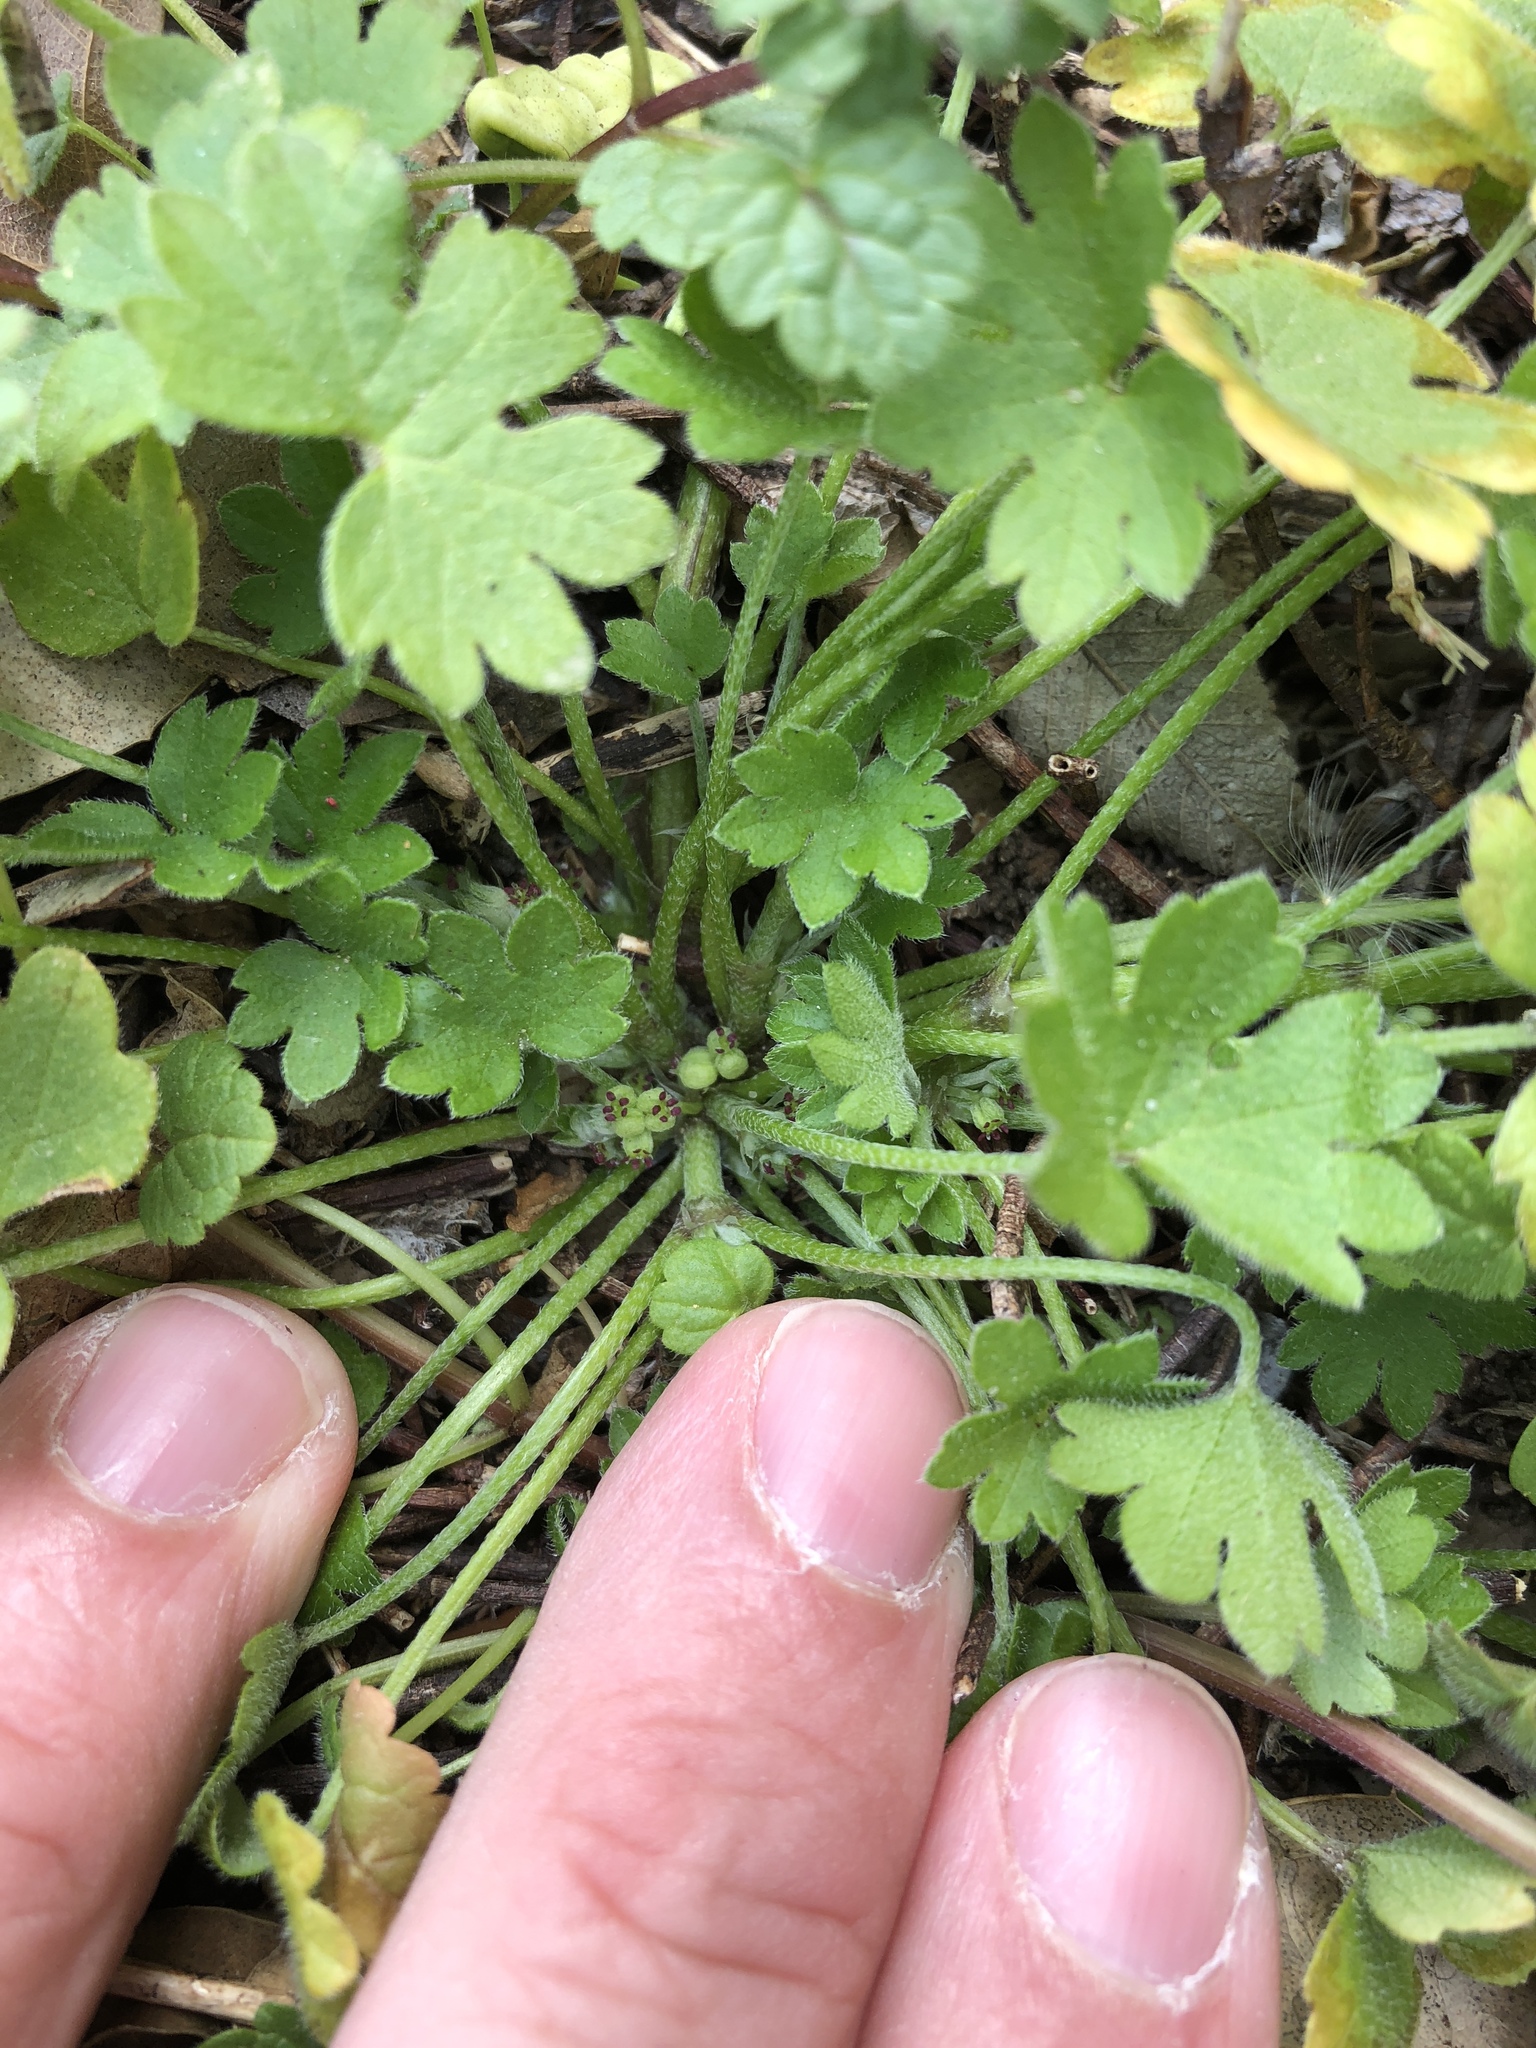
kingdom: Plantae
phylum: Tracheophyta
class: Magnoliopsida
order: Apiales
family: Apiaceae
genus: Bowlesia
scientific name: Bowlesia incana
